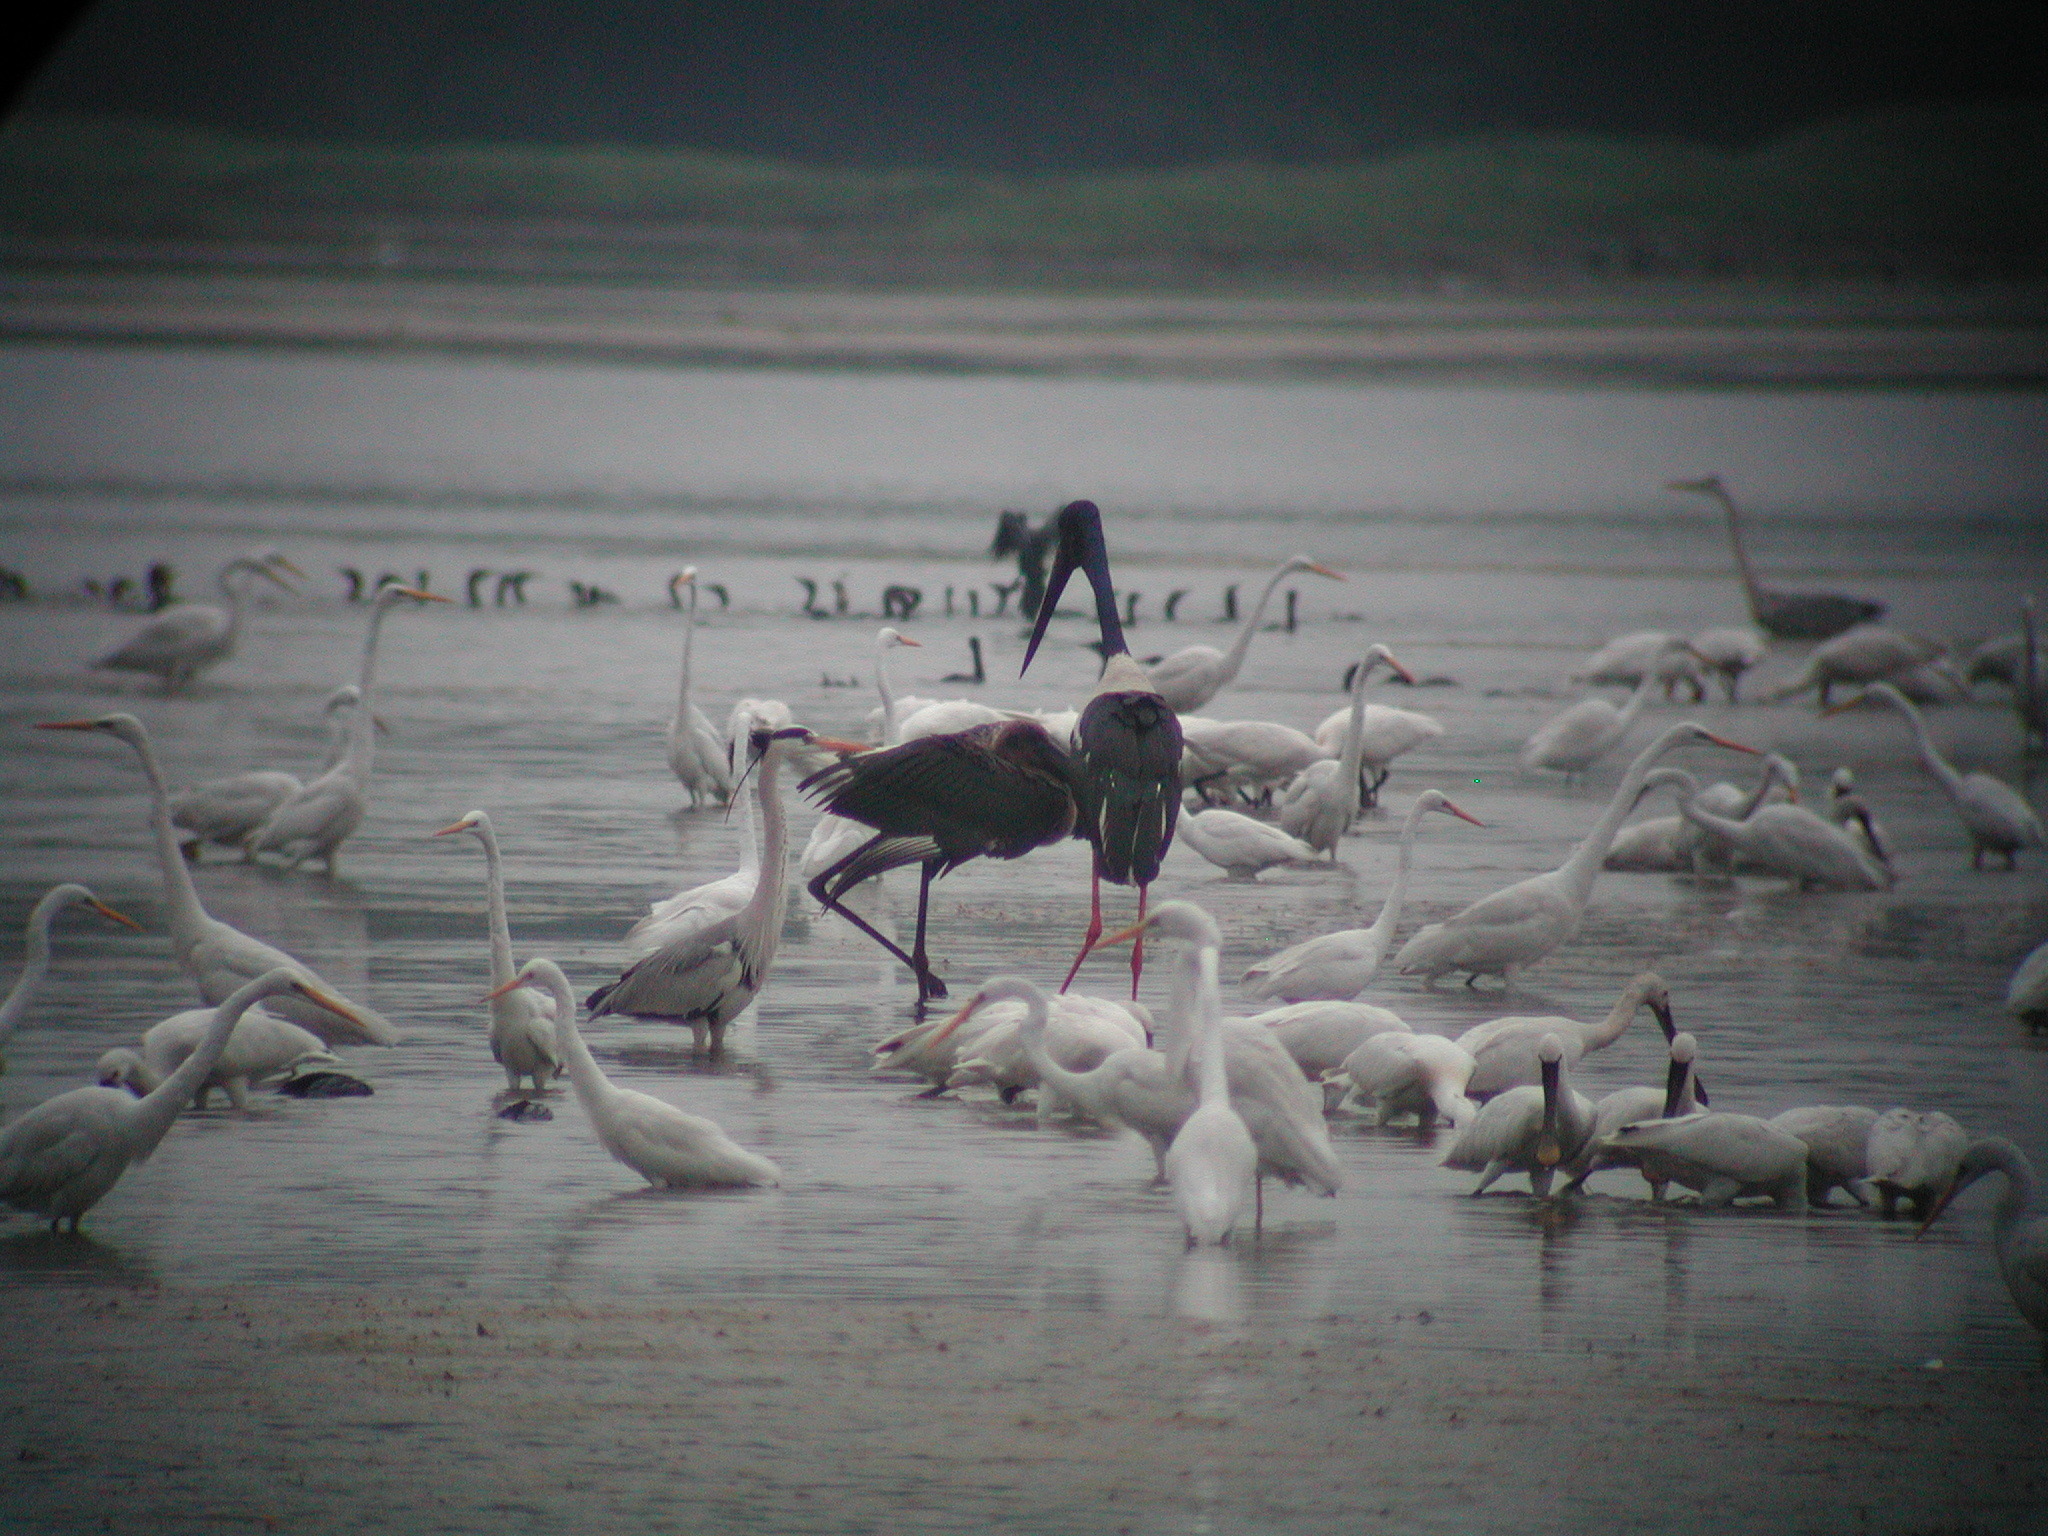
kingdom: Animalia
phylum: Chordata
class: Aves
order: Ciconiiformes
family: Ciconiidae
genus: Ephippiorhynchus
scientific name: Ephippiorhynchus asiaticus
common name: Black-necked stork
